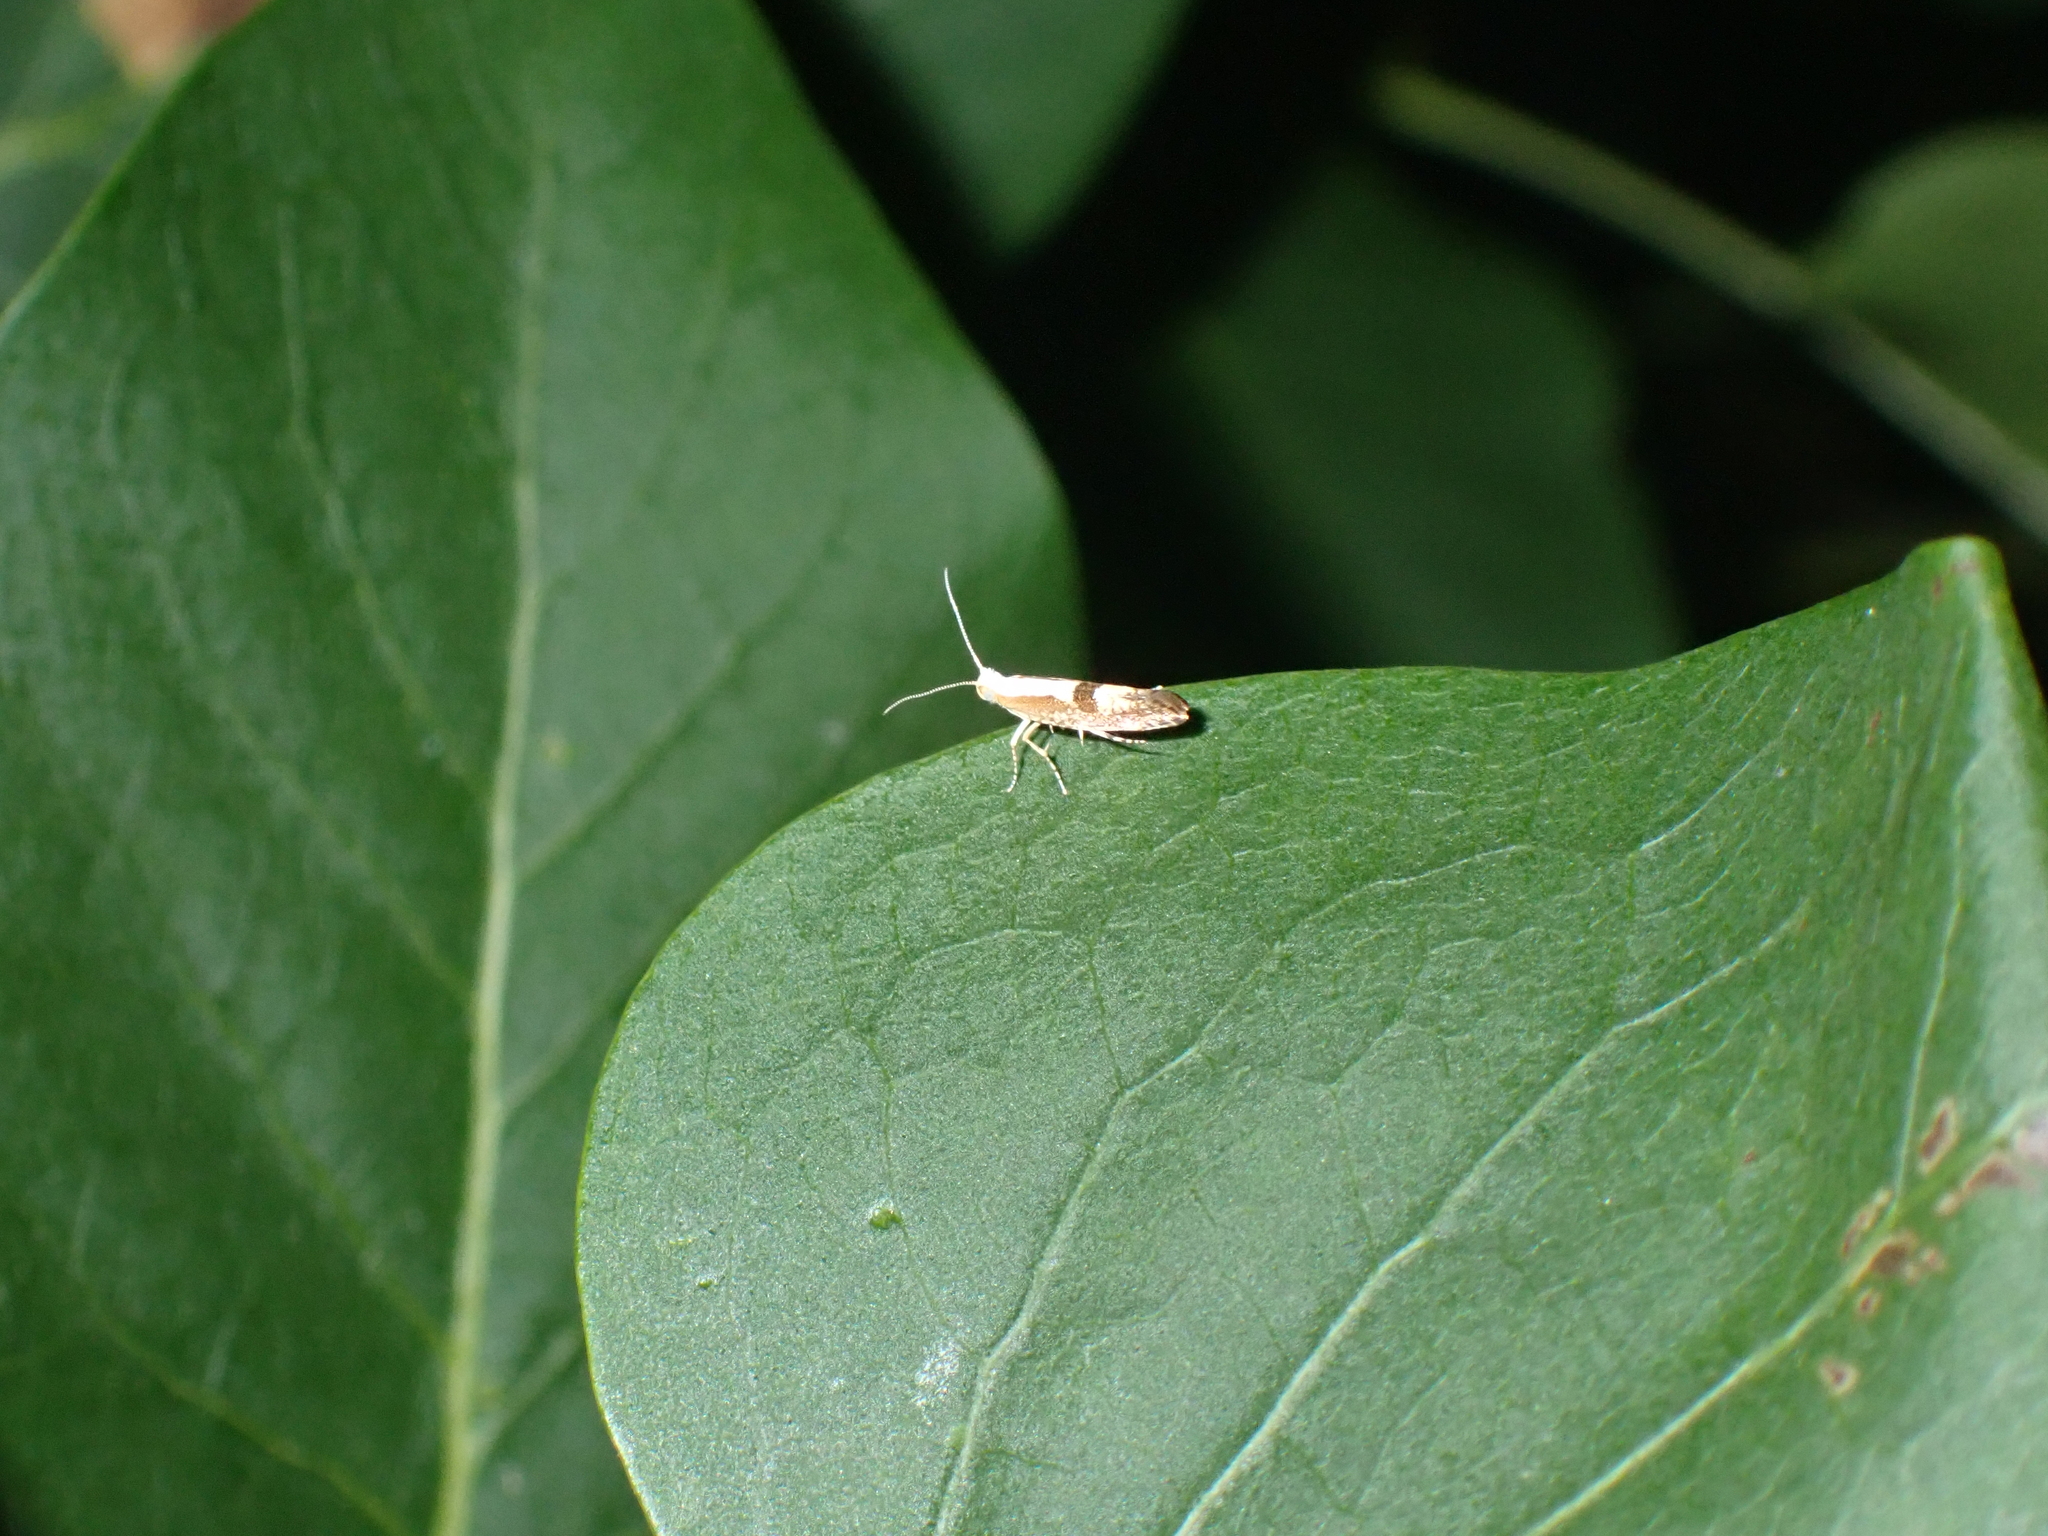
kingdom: Animalia
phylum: Arthropoda
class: Insecta
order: Lepidoptera
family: Argyresthiidae
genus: Argyresthia
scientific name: Argyresthia pruniella
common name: Cherry fruit moth
